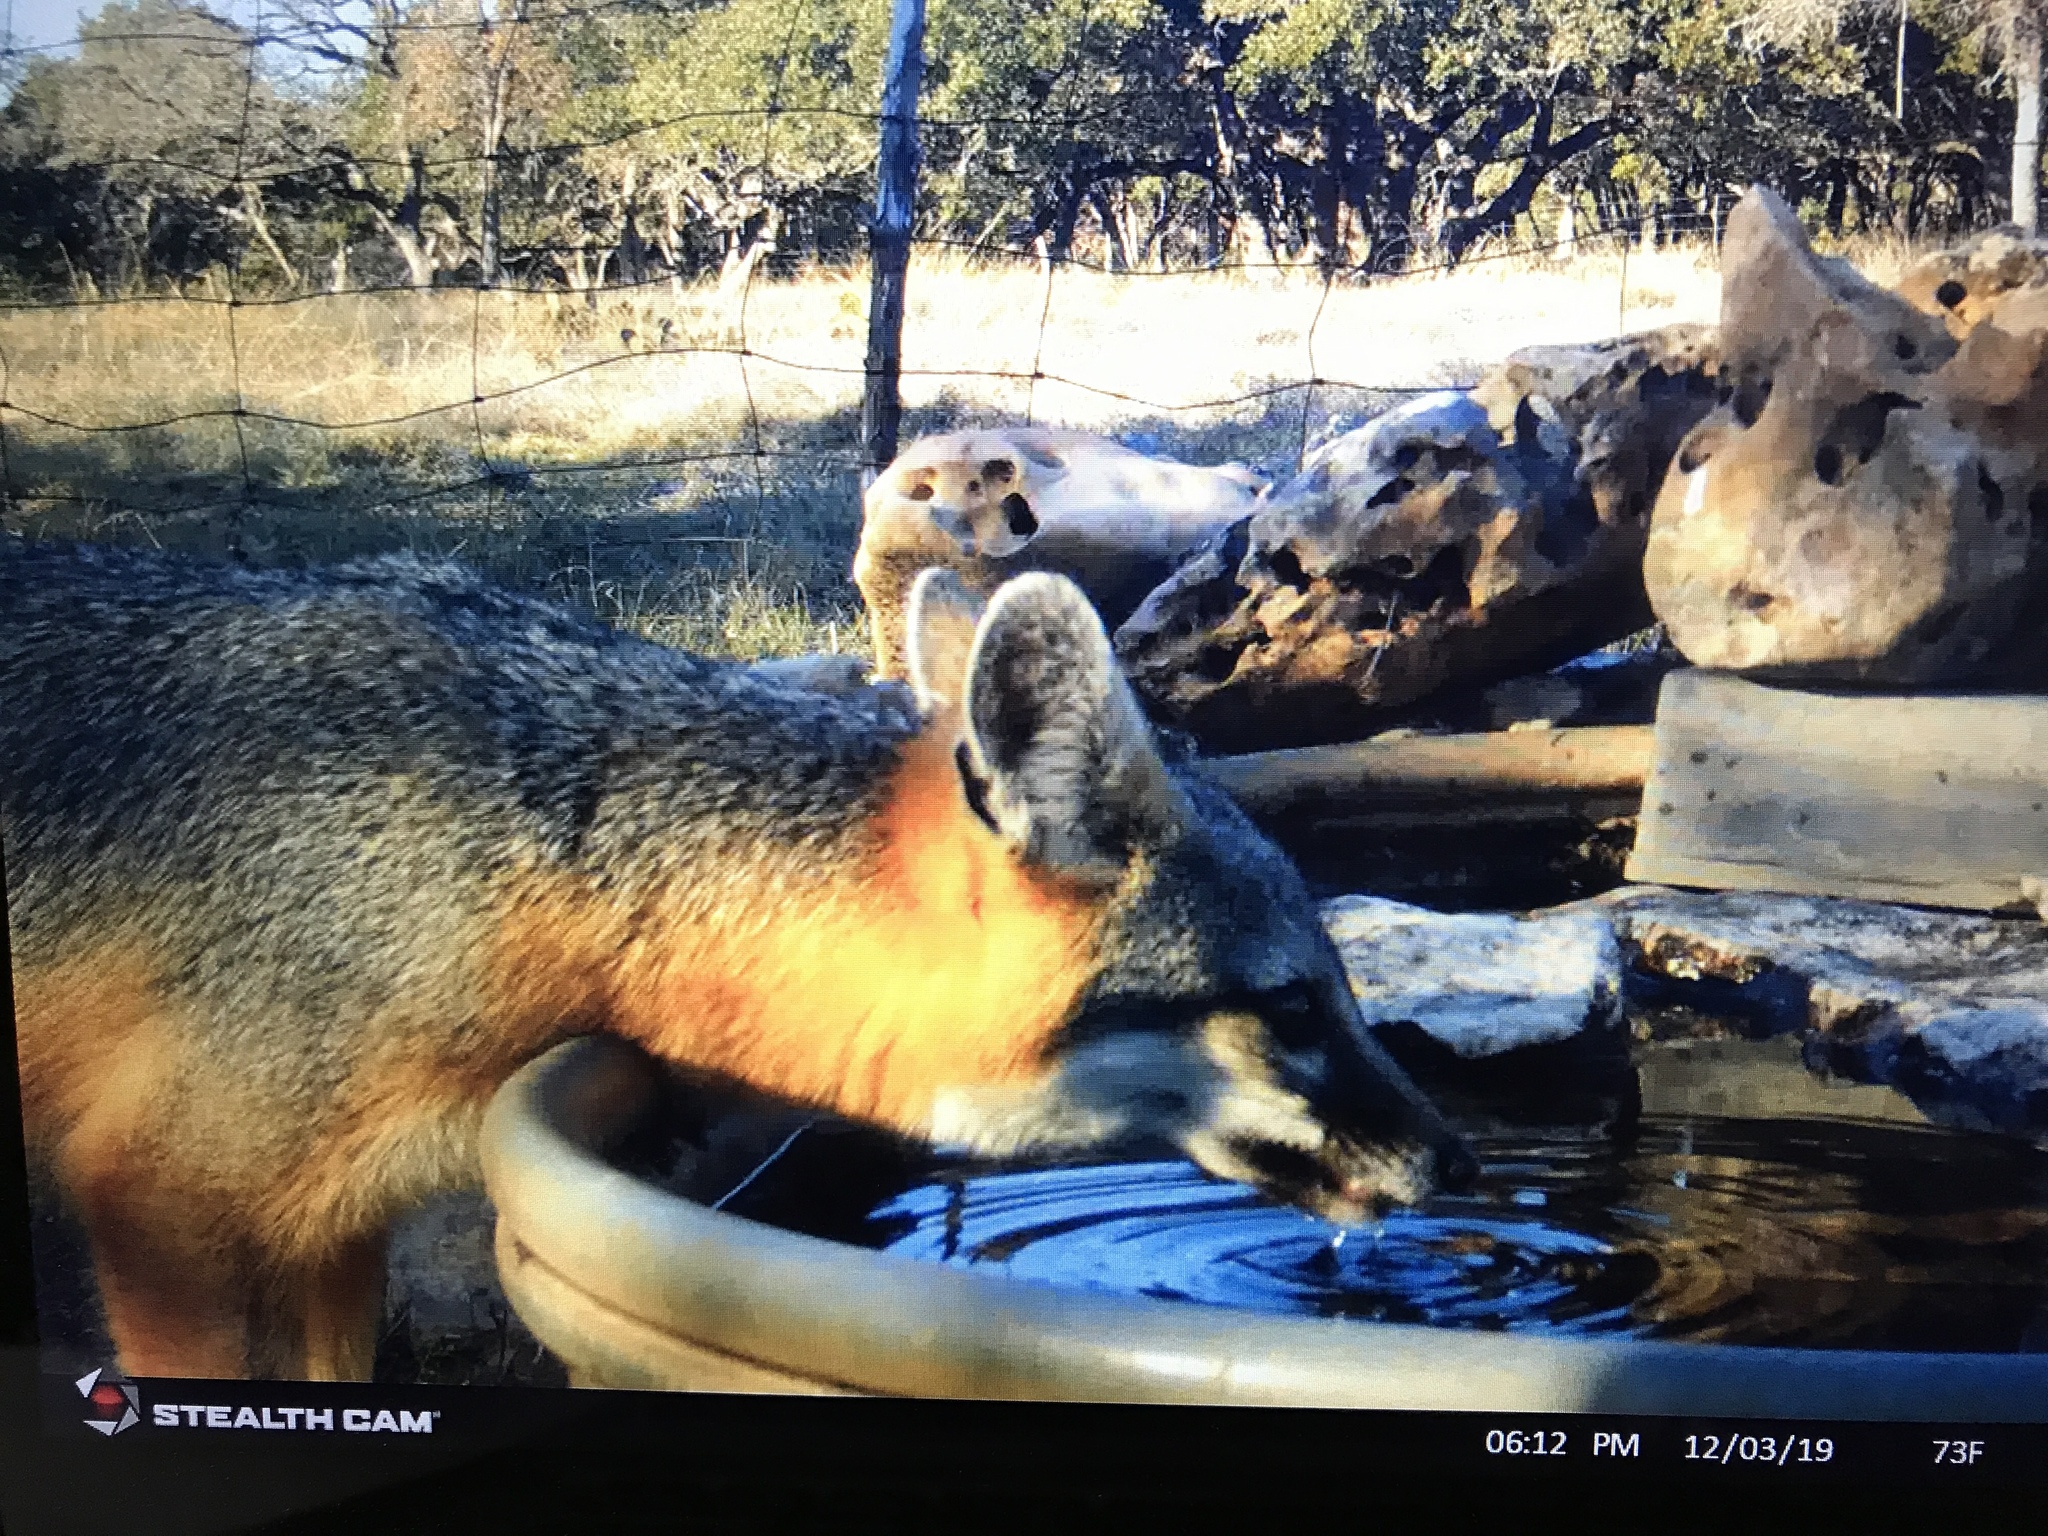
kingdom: Animalia
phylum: Chordata
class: Mammalia
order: Carnivora
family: Canidae
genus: Urocyon
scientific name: Urocyon cinereoargenteus
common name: Gray fox
